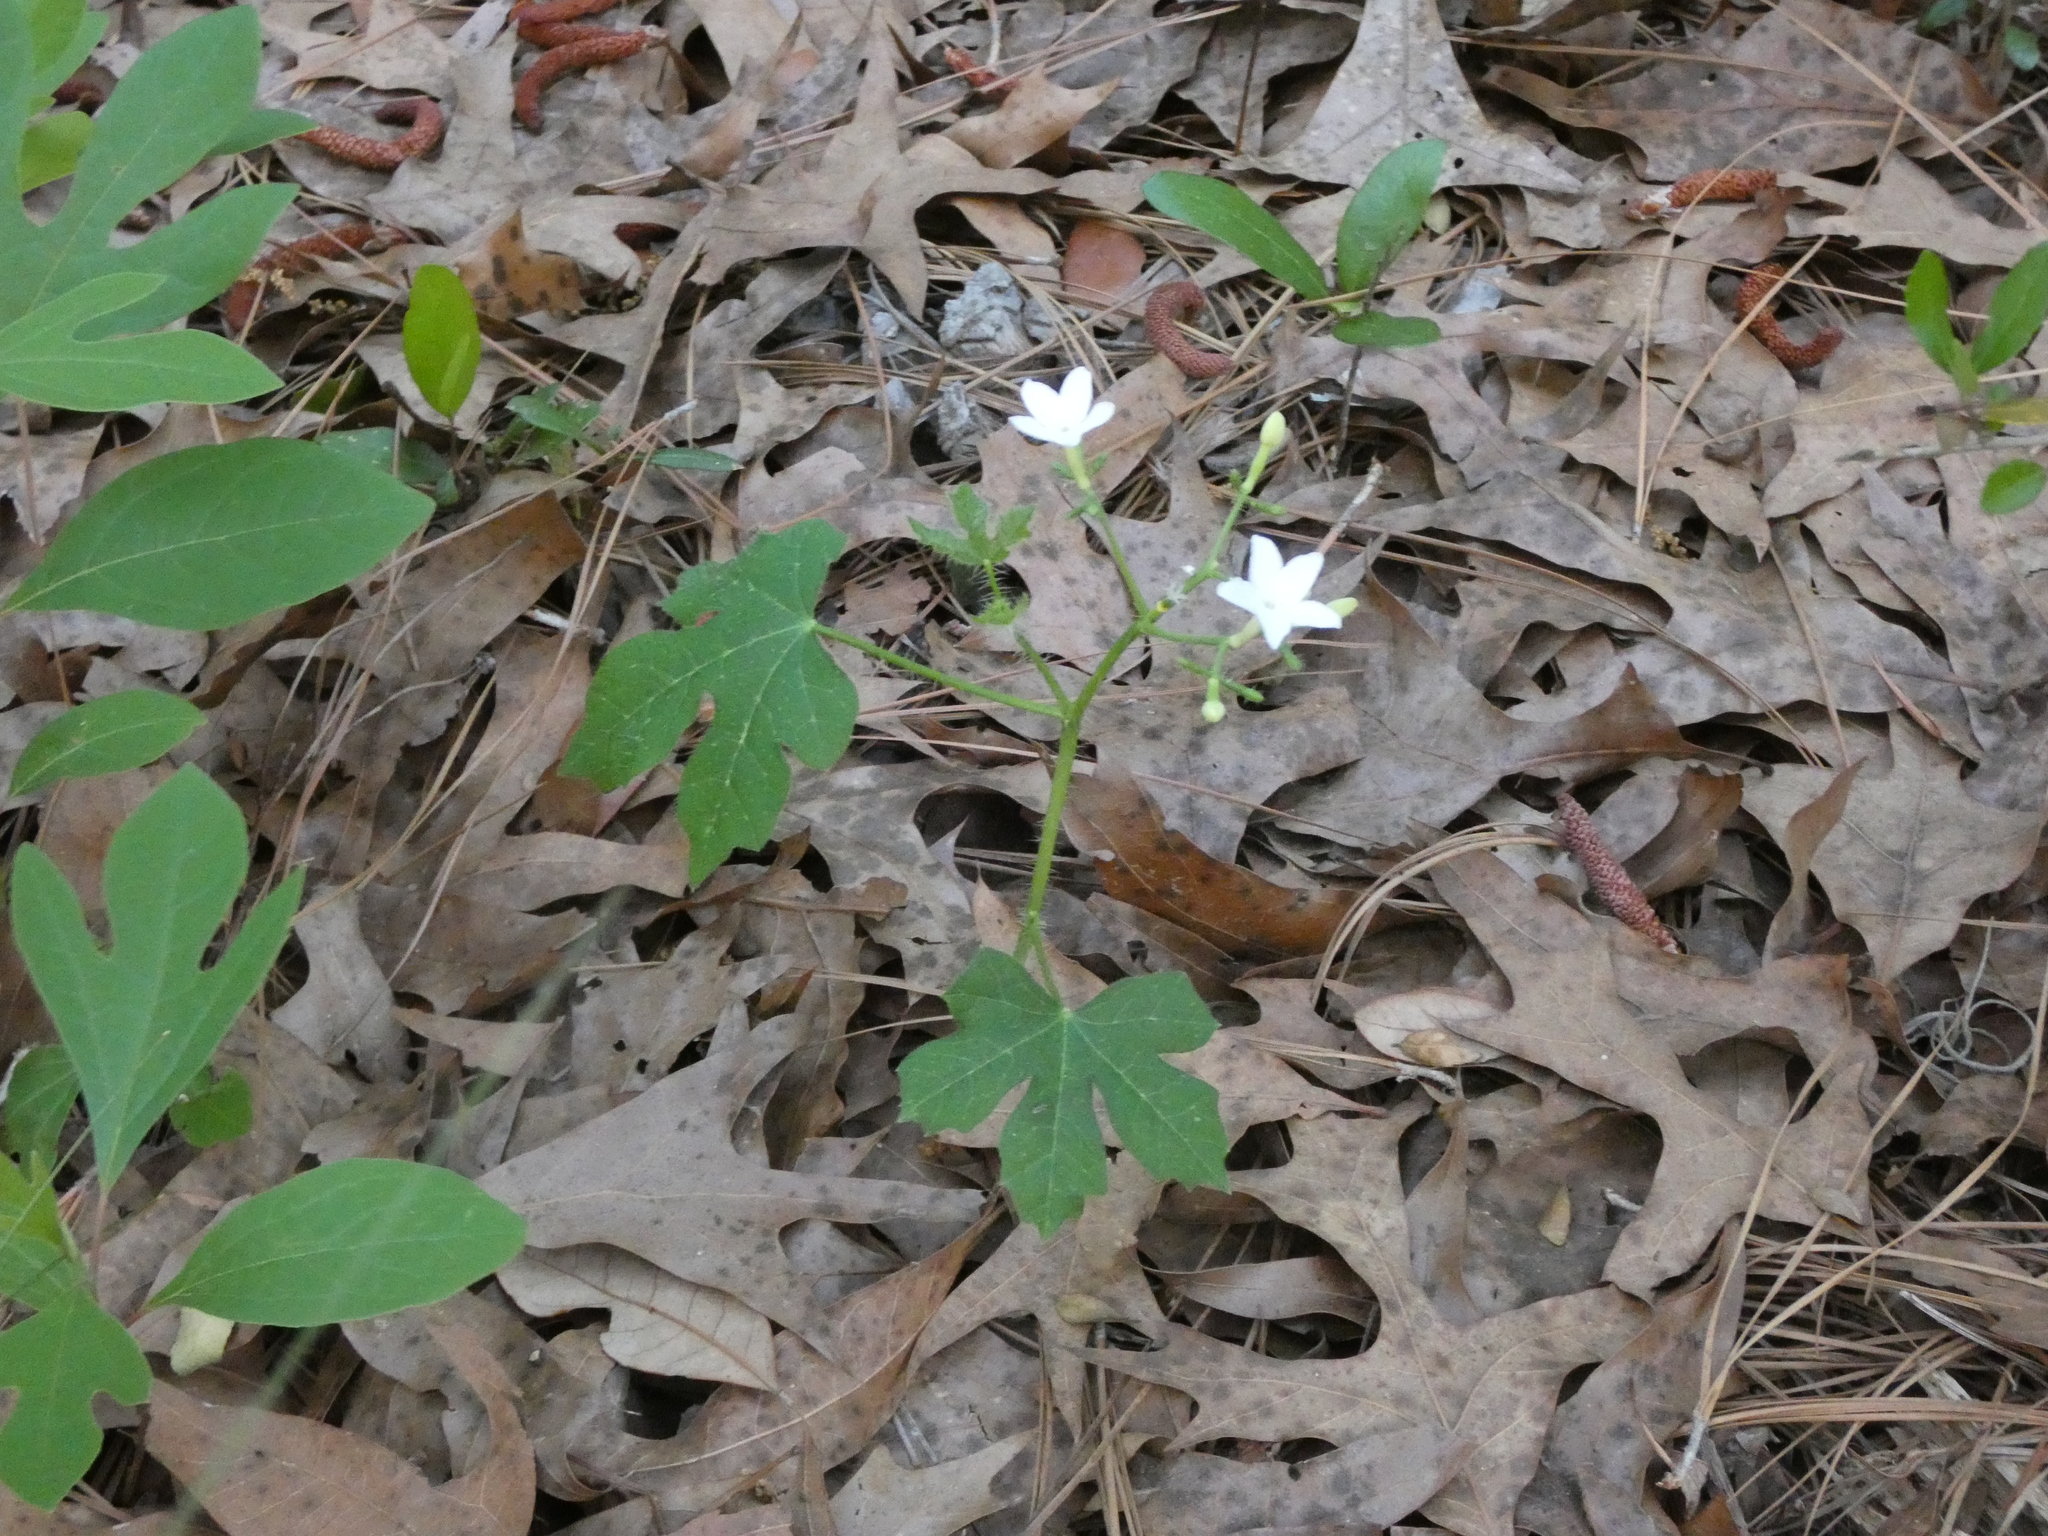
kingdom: Plantae
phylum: Tracheophyta
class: Magnoliopsida
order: Malpighiales
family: Euphorbiaceae
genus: Cnidoscolus
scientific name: Cnidoscolus stimulosus
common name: Bull-nettle
